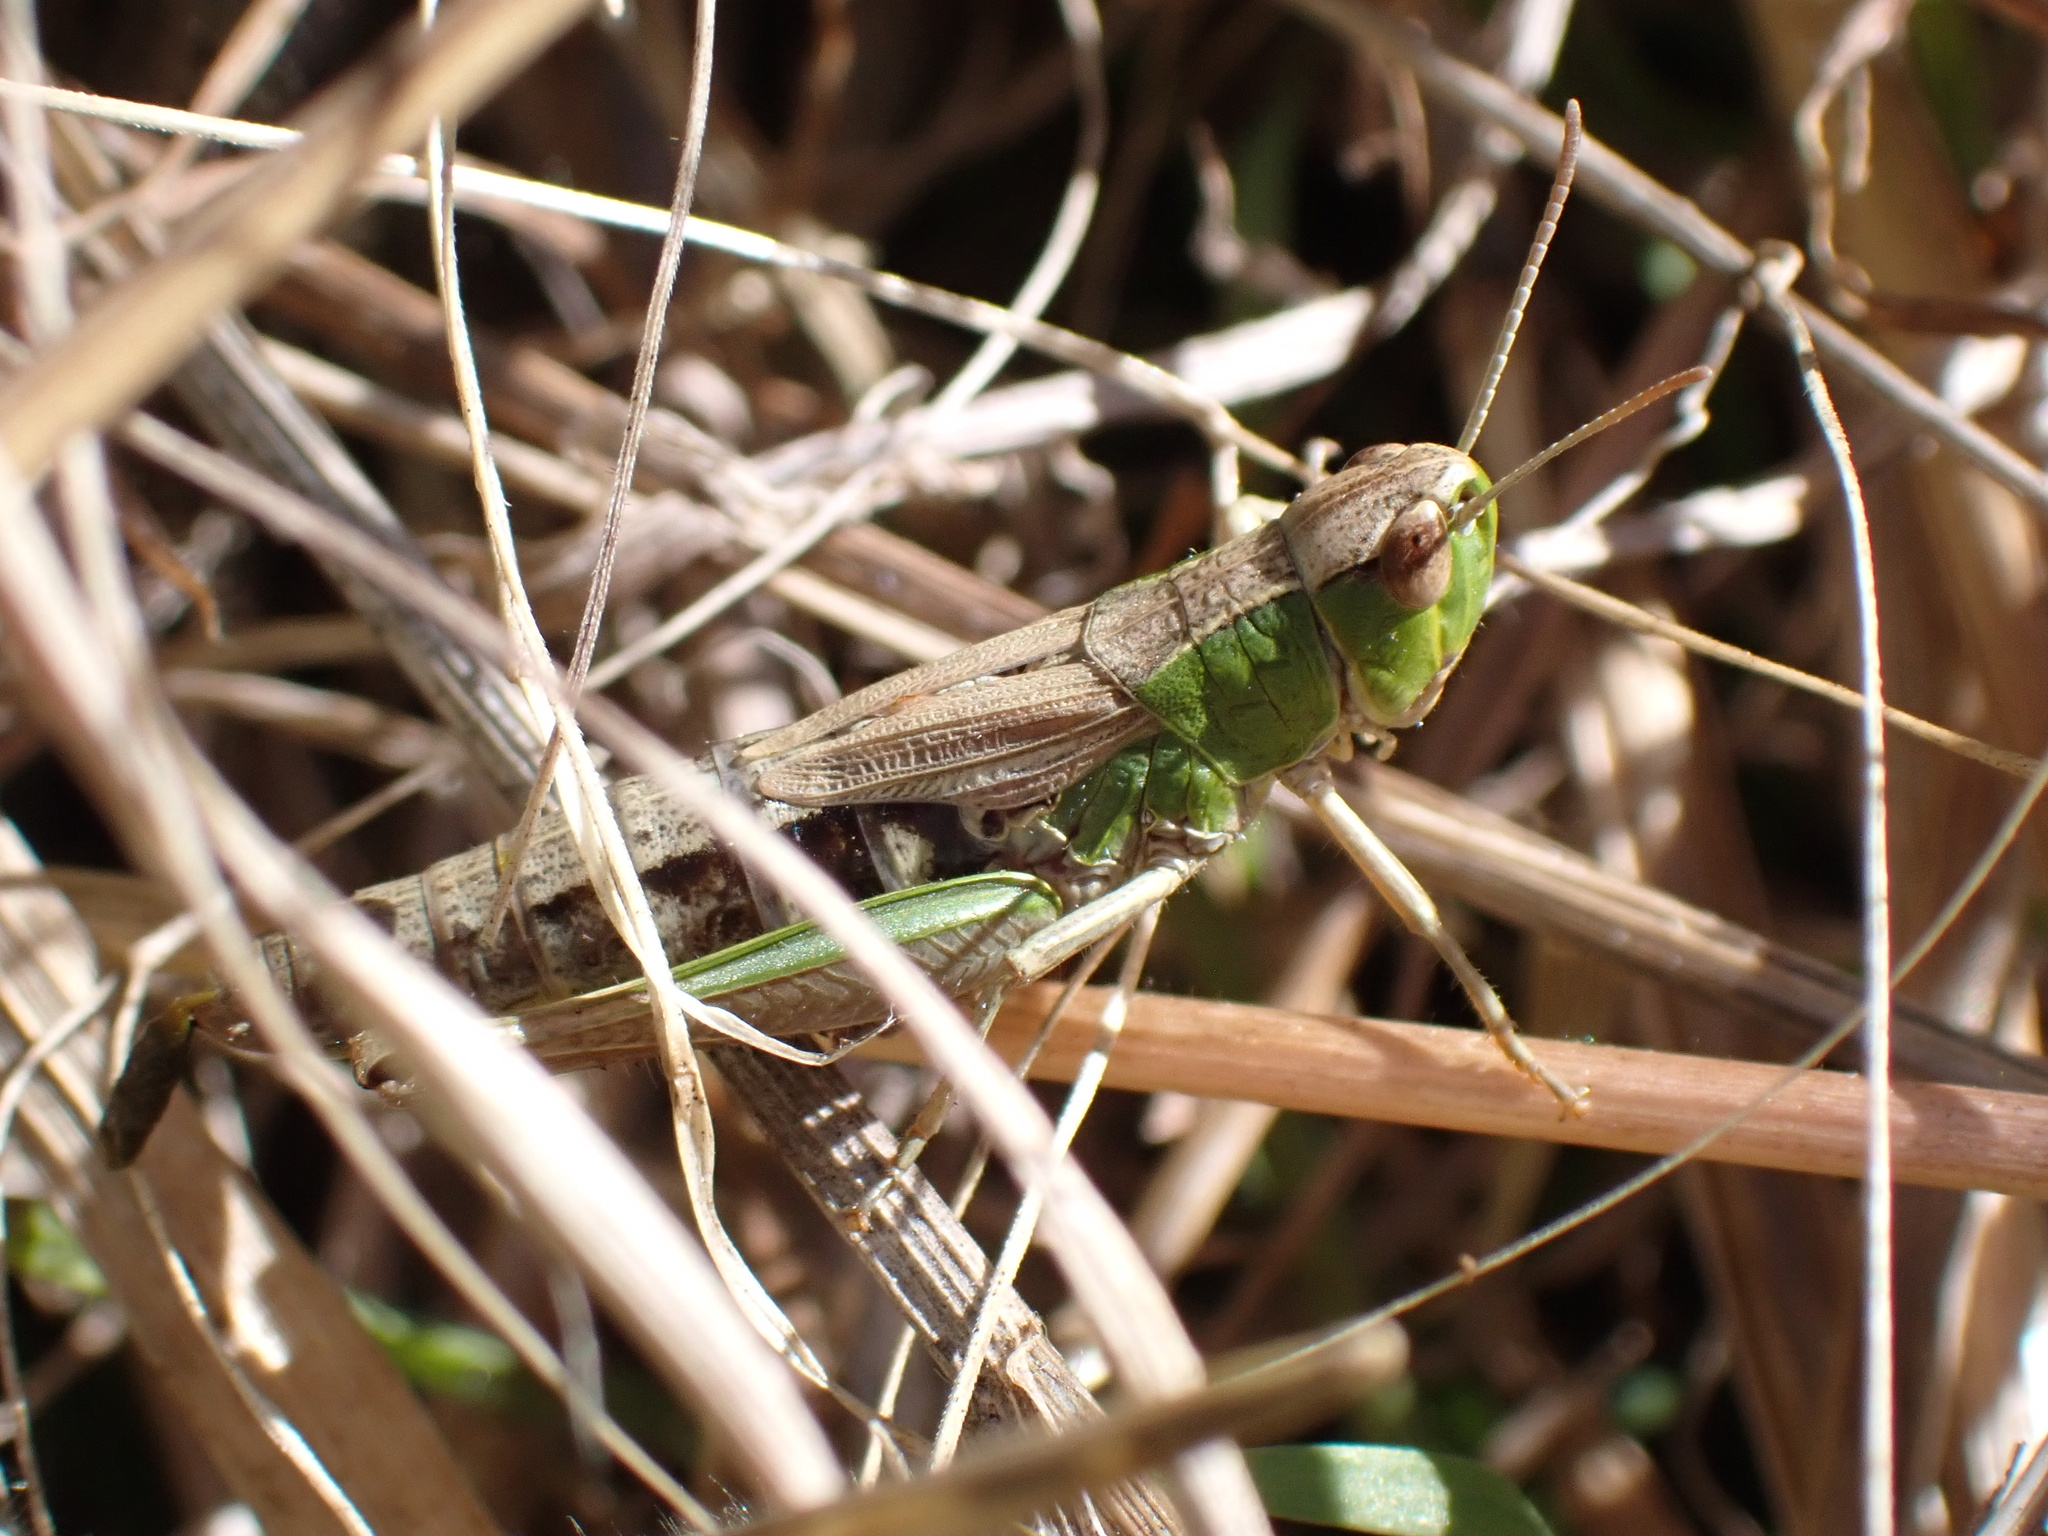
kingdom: Animalia
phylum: Arthropoda
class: Insecta
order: Orthoptera
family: Acrididae
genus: Pseudochorthippus
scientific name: Pseudochorthippus parallelus
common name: Meadow grasshopper
